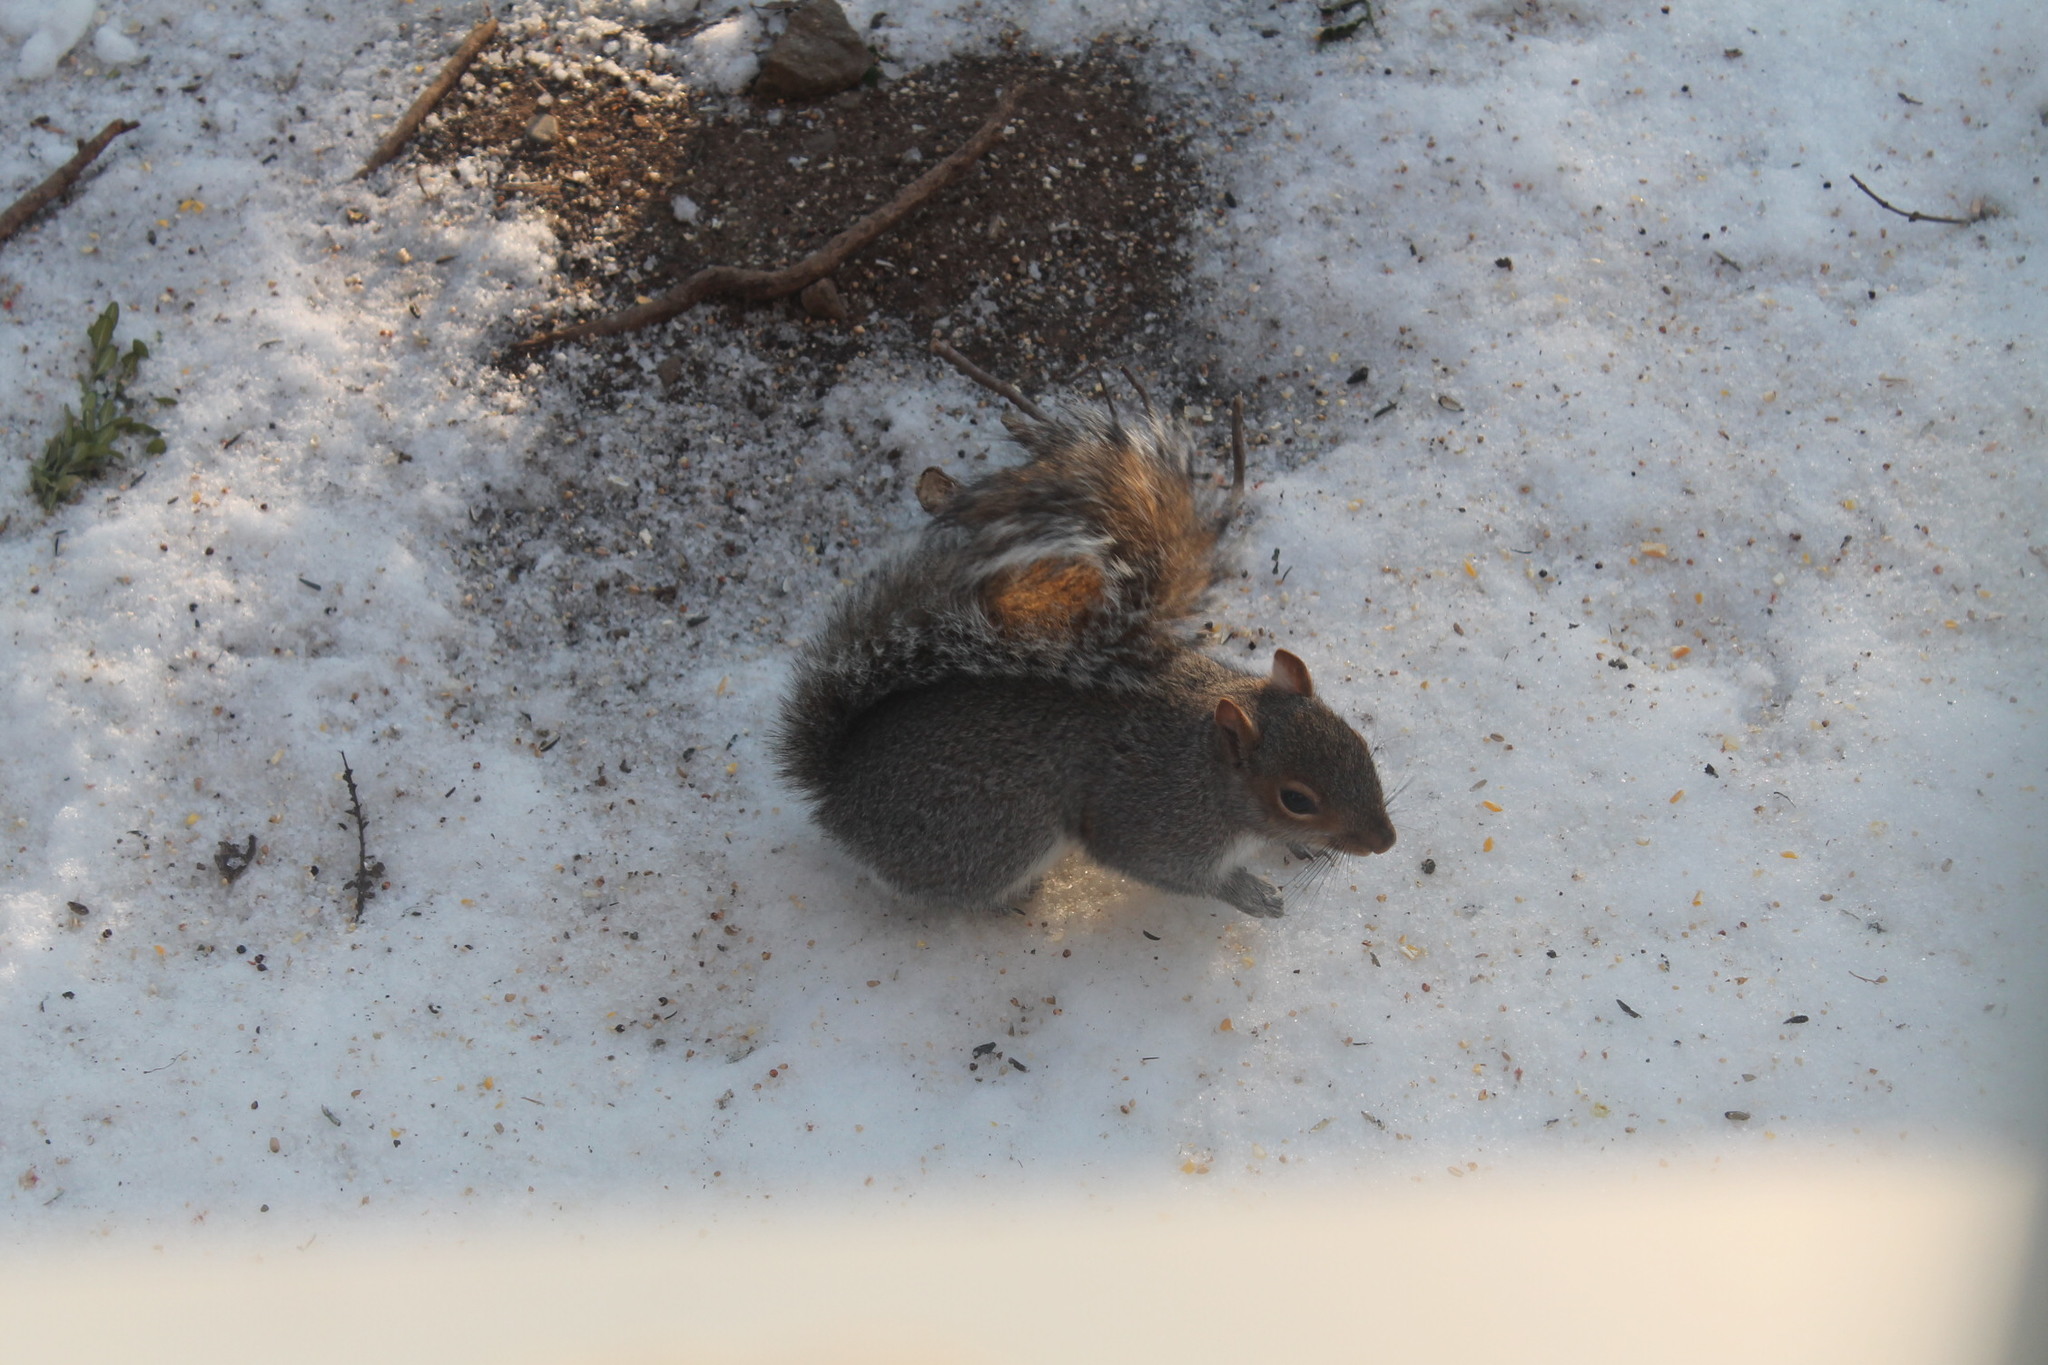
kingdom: Animalia
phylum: Chordata
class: Mammalia
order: Rodentia
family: Sciuridae
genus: Sciurus
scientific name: Sciurus carolinensis
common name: Eastern gray squirrel
